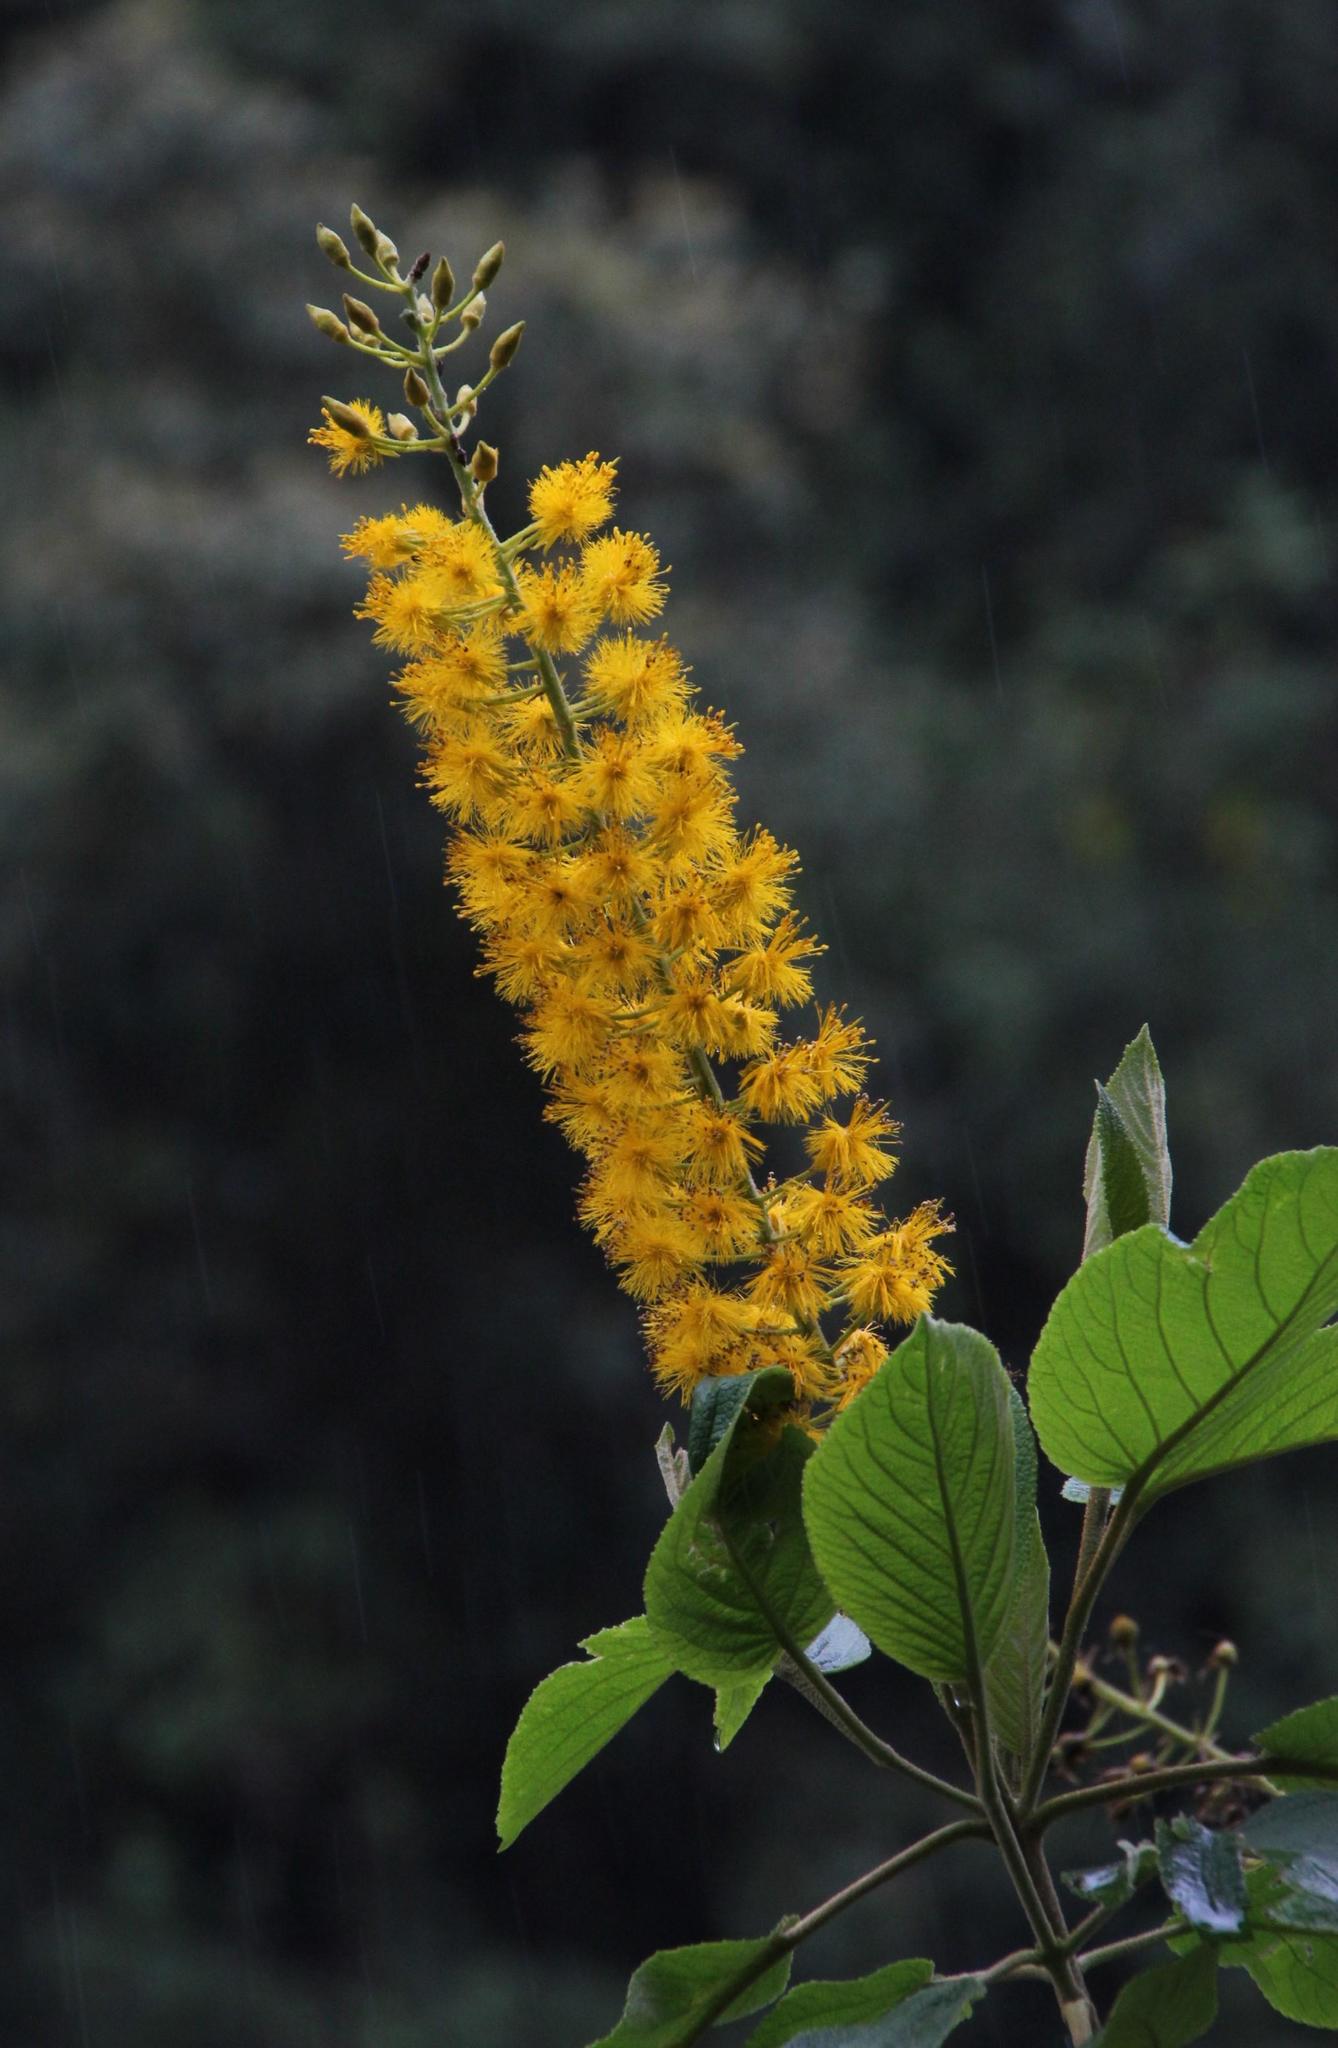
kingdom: Plantae
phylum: Tracheophyta
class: Magnoliopsida
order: Malpighiales
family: Salicaceae
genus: Abatia
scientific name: Abatia spicata
